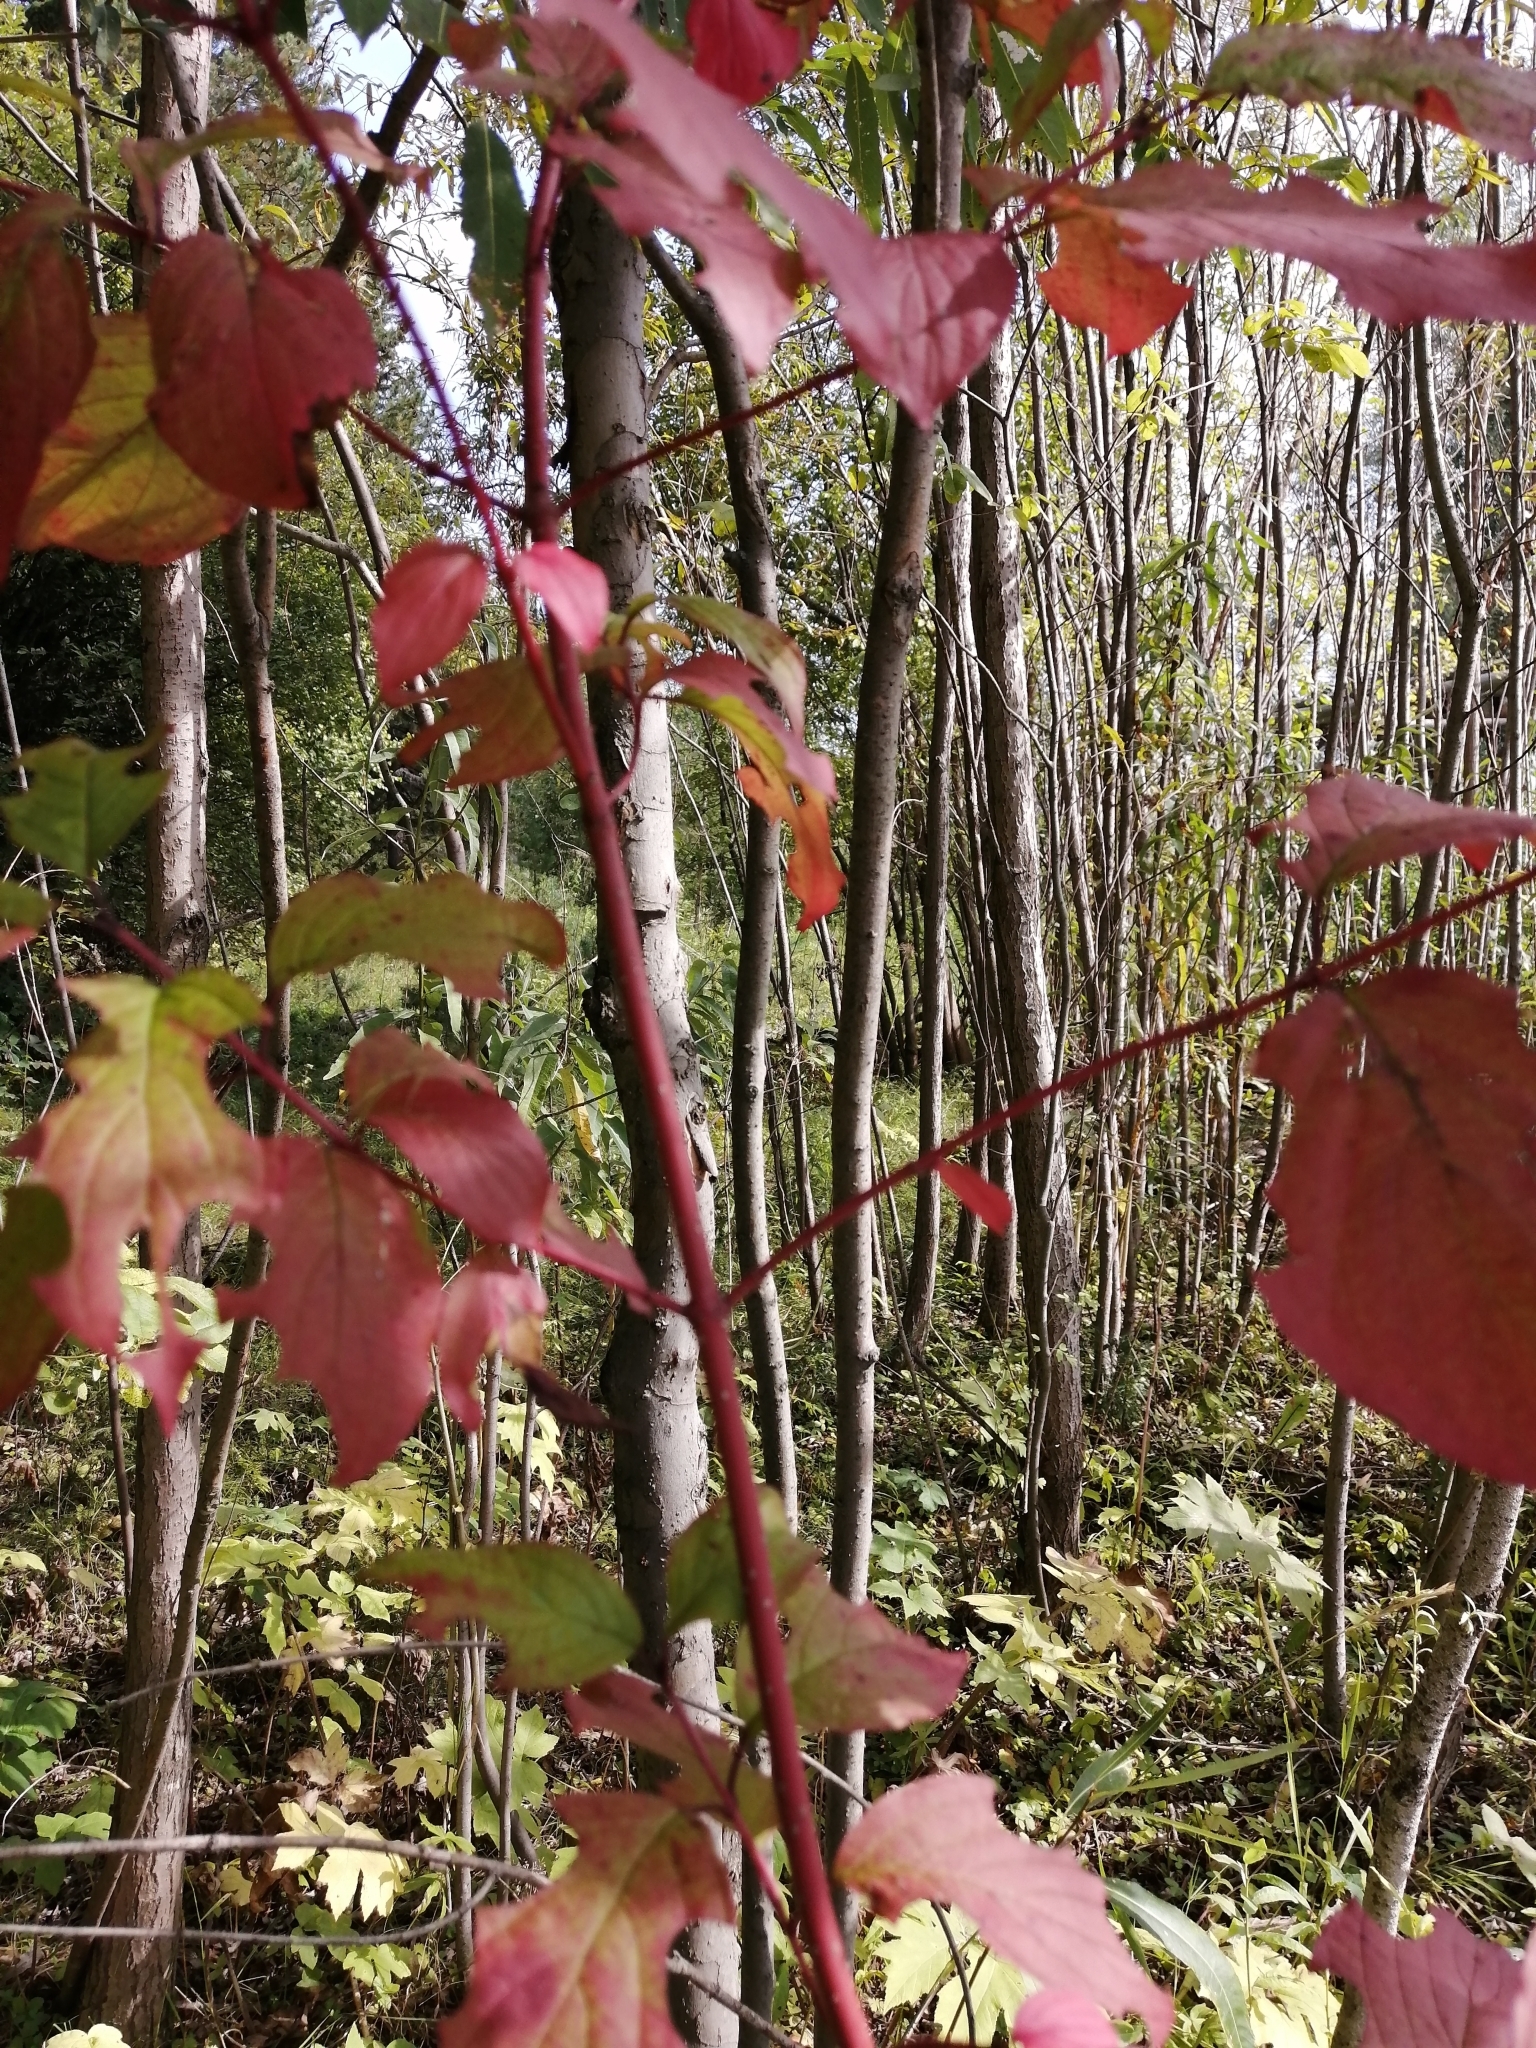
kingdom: Plantae
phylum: Tracheophyta
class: Magnoliopsida
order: Cornales
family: Cornaceae
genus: Cornus
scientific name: Cornus alba
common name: White dogwood
